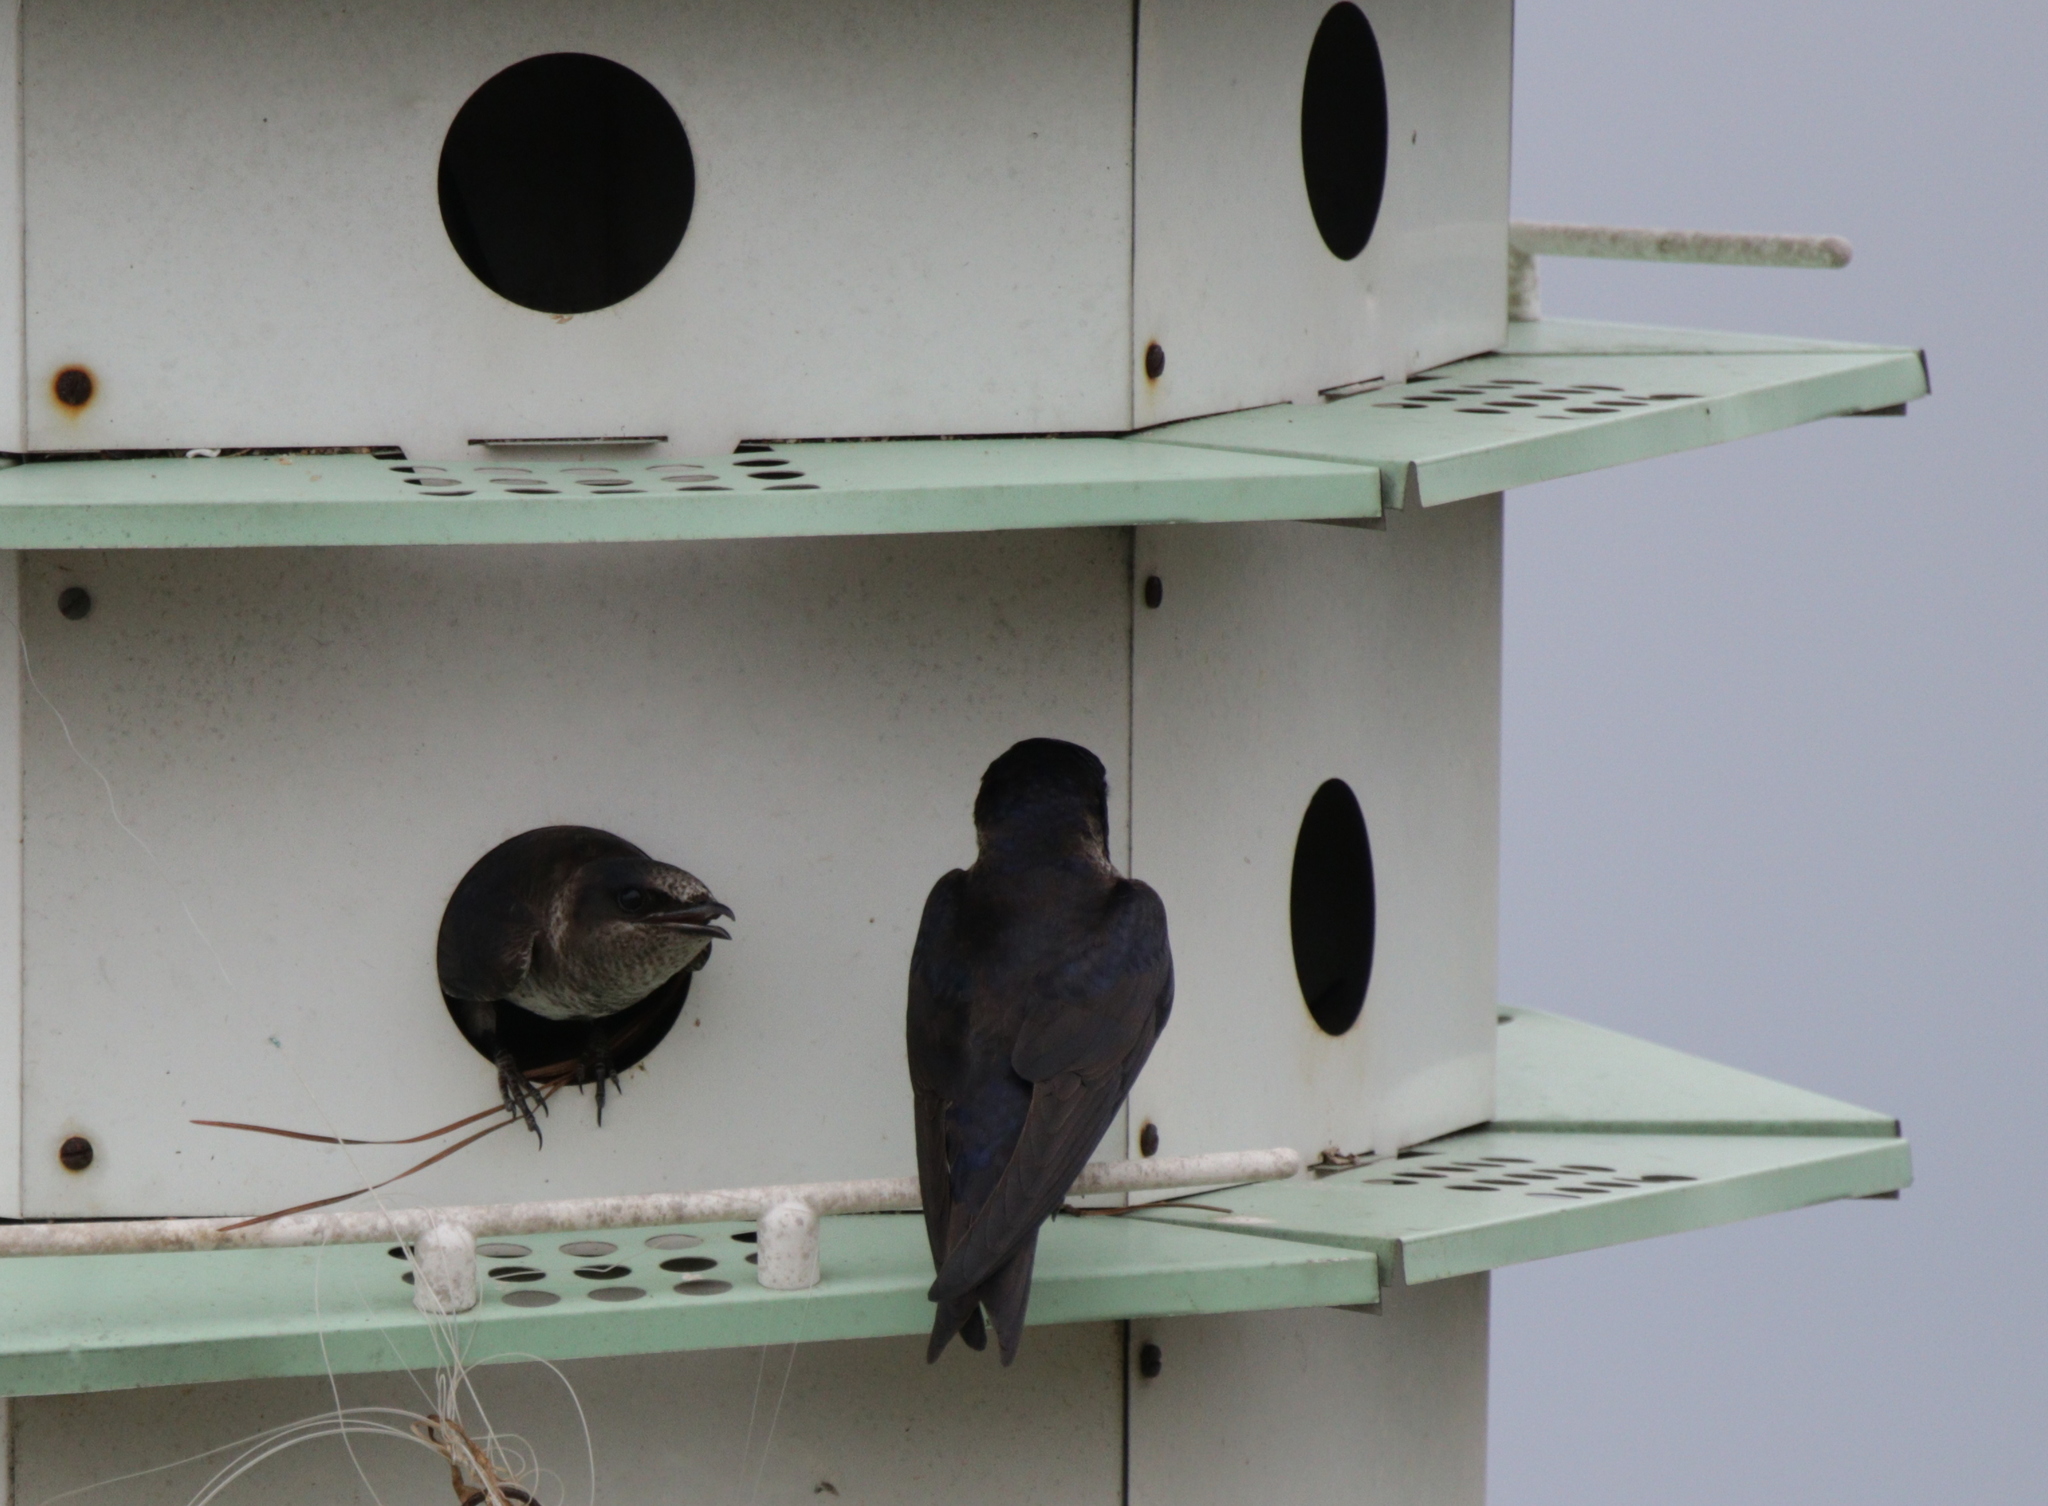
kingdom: Animalia
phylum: Chordata
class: Aves
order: Passeriformes
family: Hirundinidae
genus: Progne
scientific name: Progne subis
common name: Purple martin
